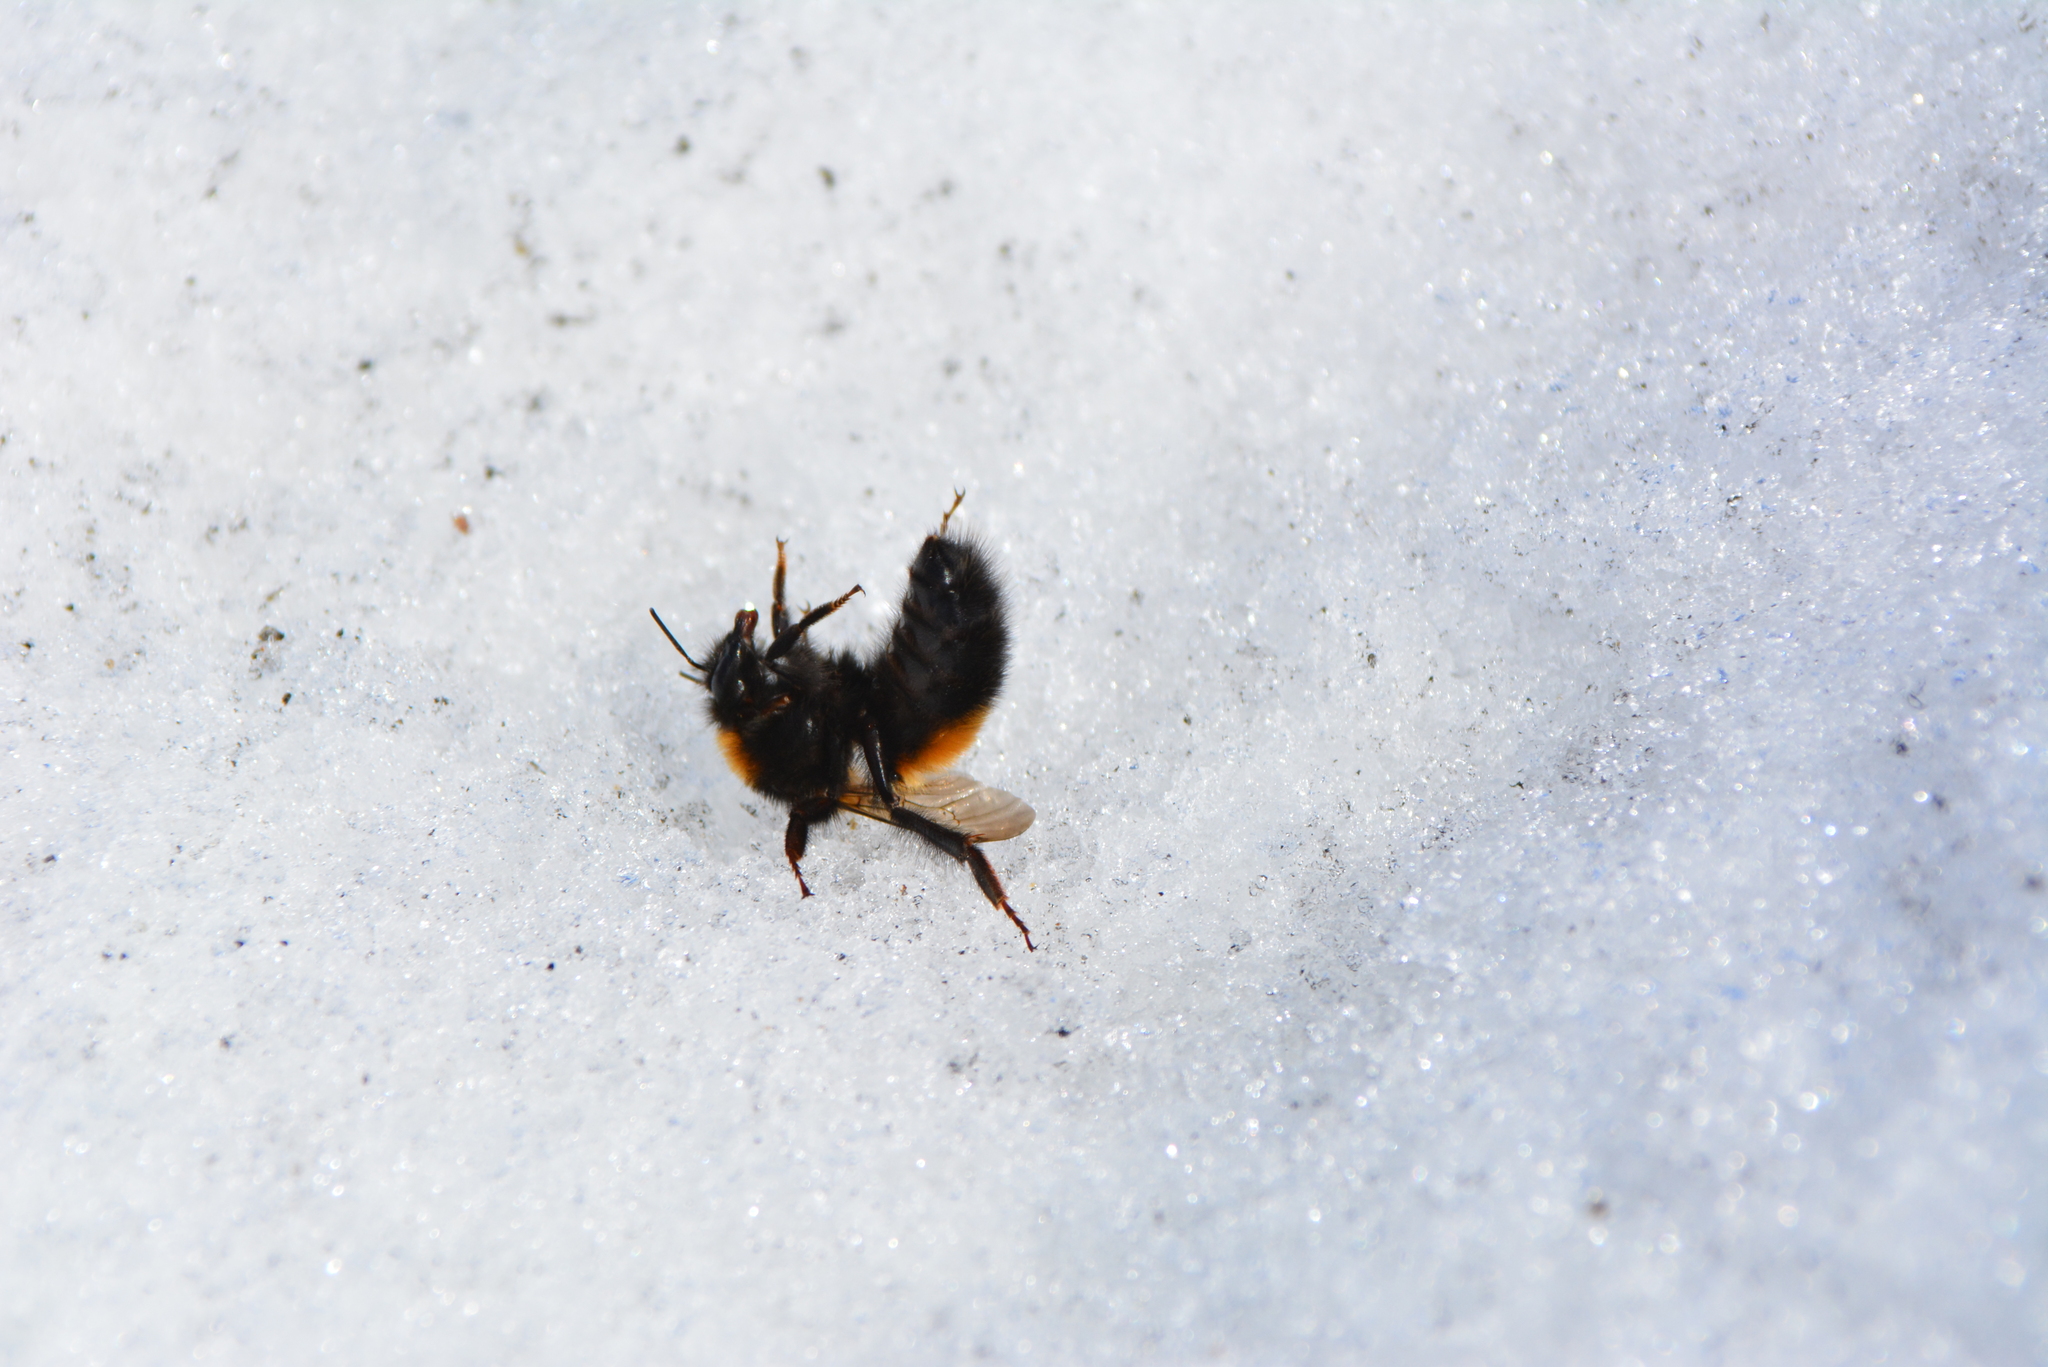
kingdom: Animalia
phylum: Arthropoda
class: Insecta
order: Hymenoptera
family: Apidae
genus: Bombus
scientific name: Bombus hyperboreus
